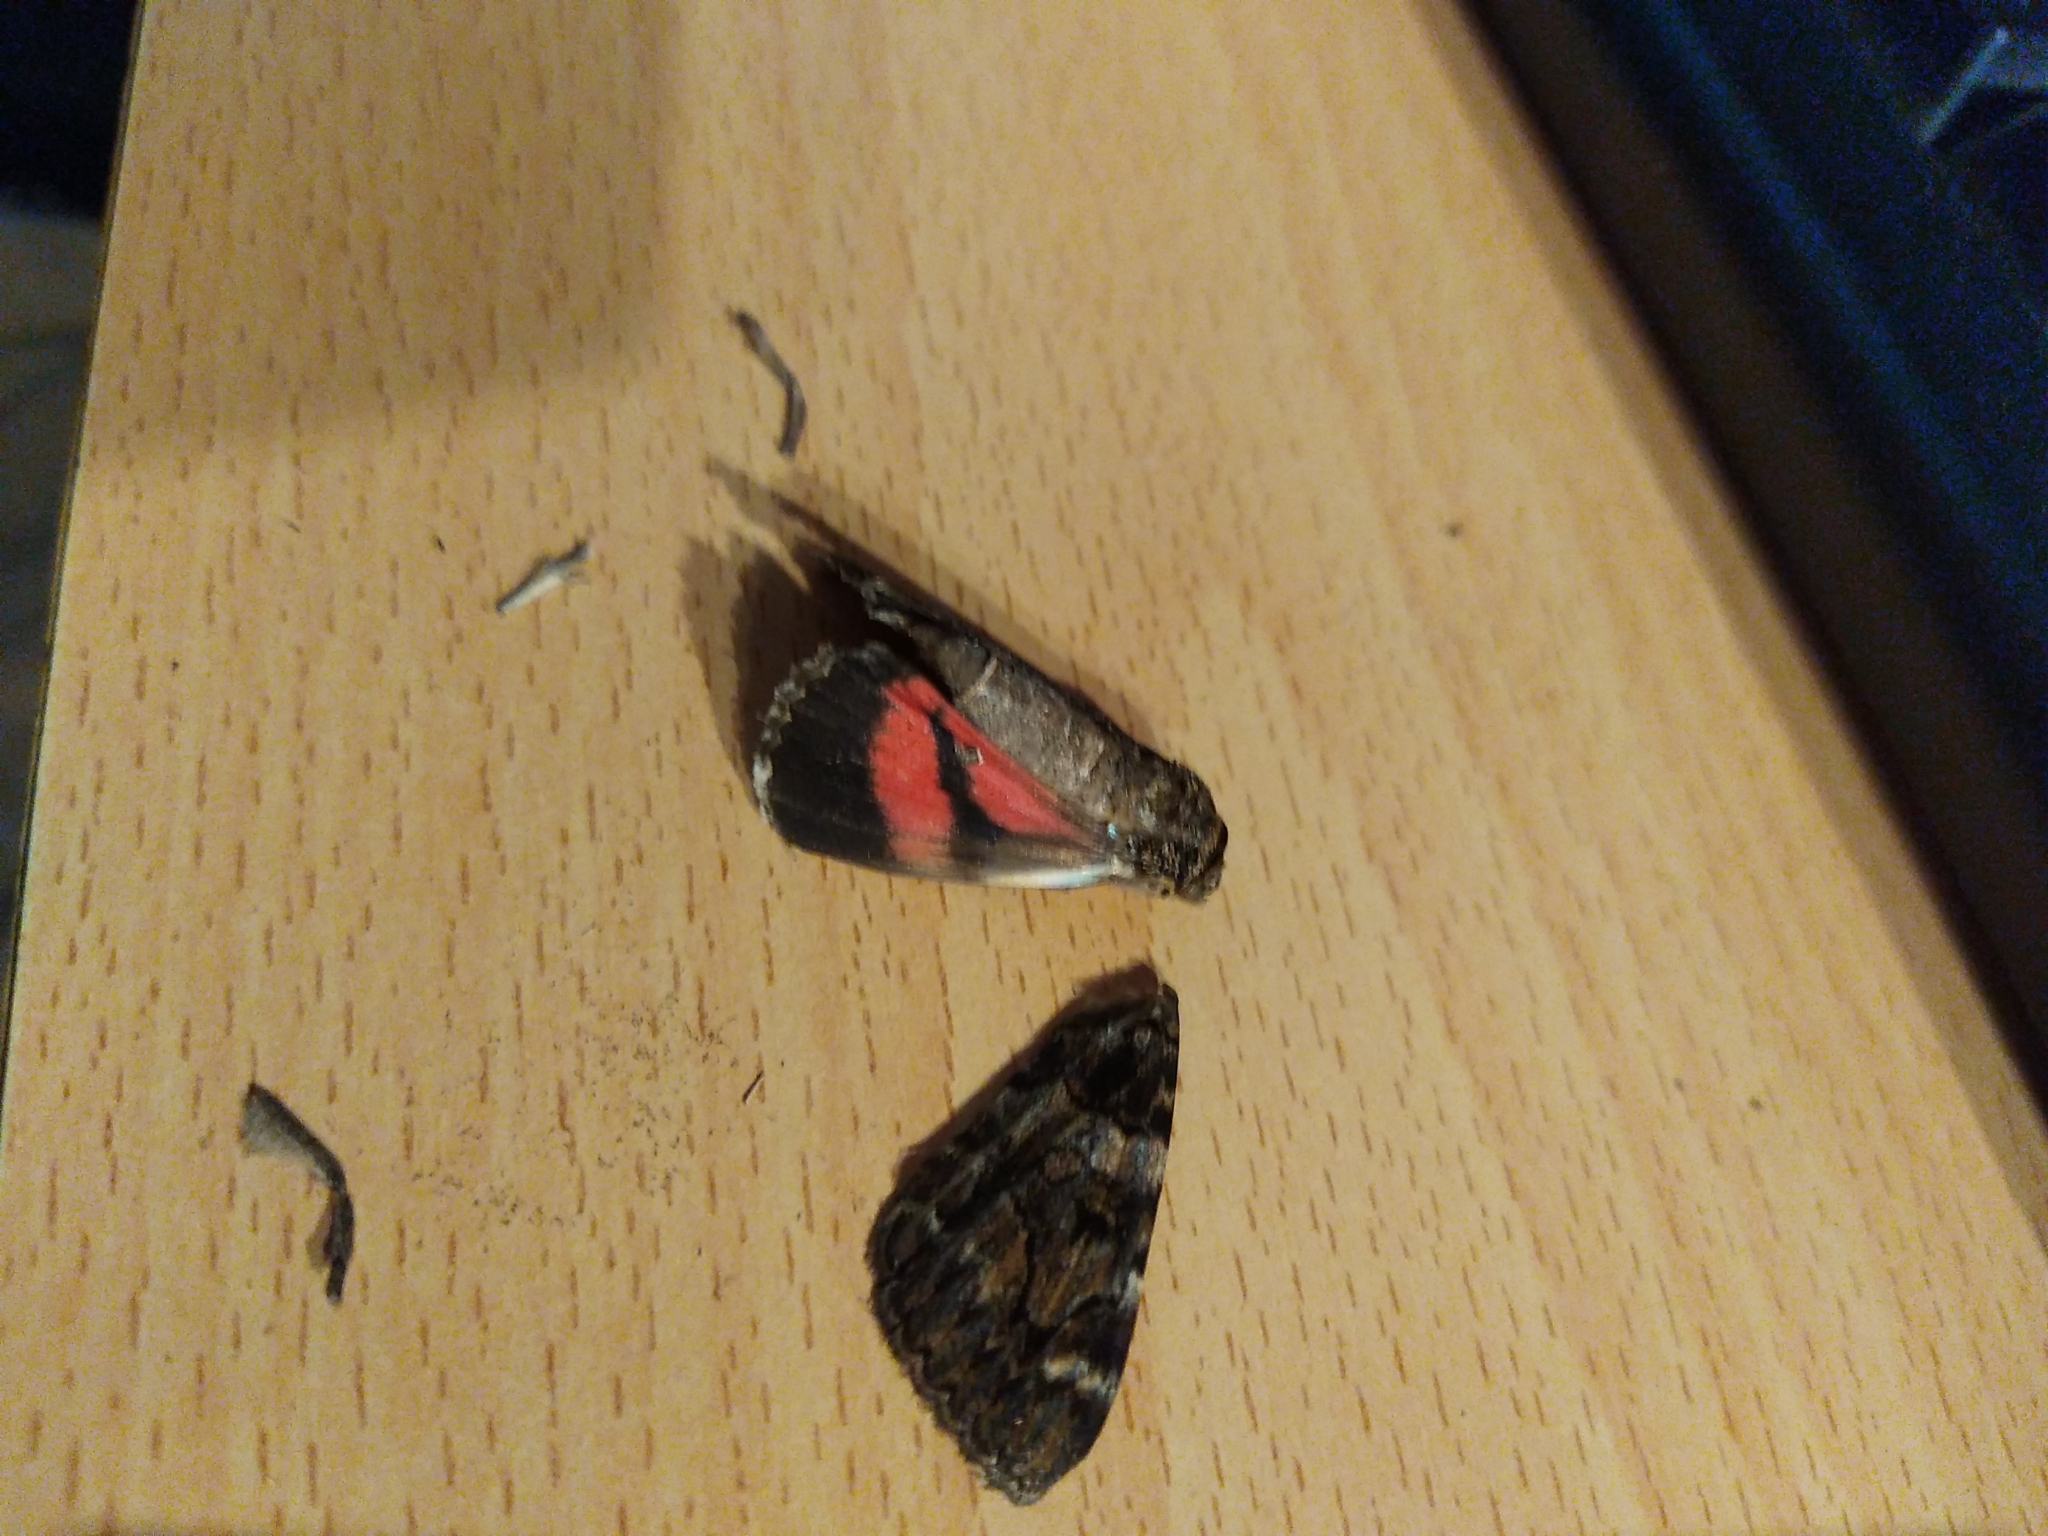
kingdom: Animalia
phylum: Arthropoda
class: Insecta
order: Lepidoptera
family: Erebidae
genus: Catocala
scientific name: Catocala coniuncta
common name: Minsmere crimson underwing
